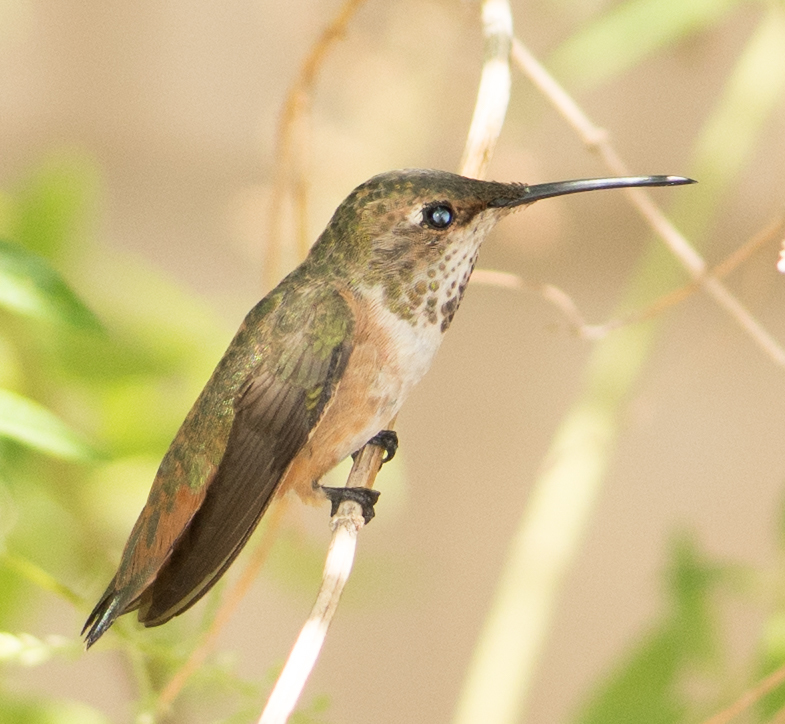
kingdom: Animalia
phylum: Chordata
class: Aves
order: Apodiformes
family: Trochilidae
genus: Selasphorus
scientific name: Selasphorus sasin
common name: Allen's hummingbird
